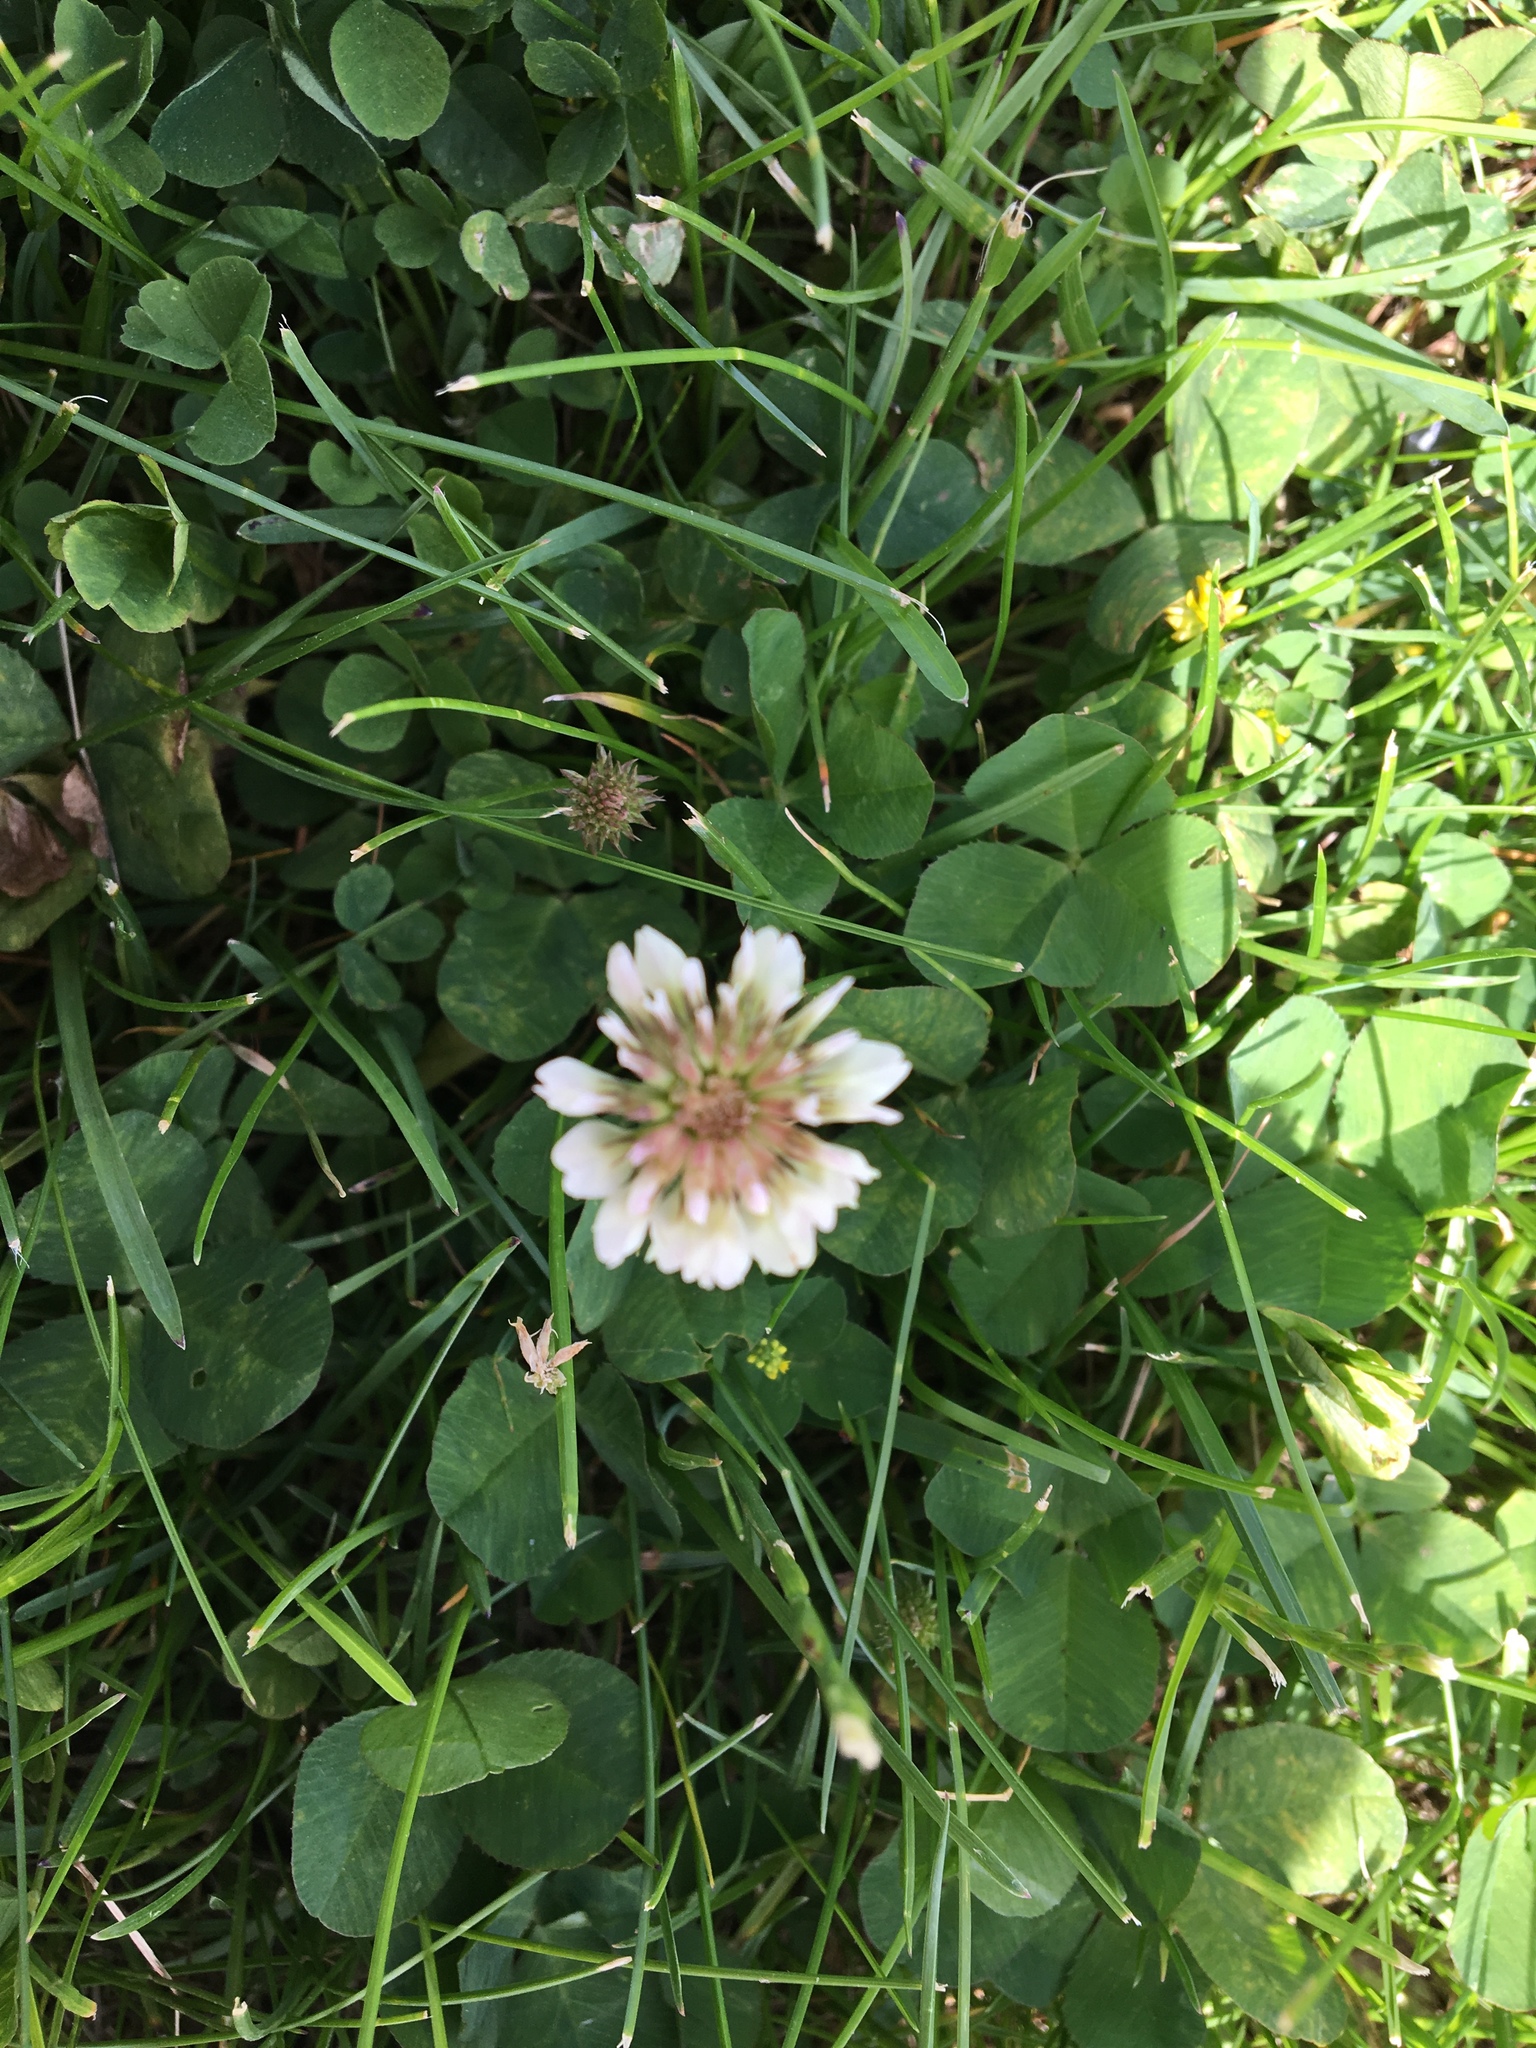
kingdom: Plantae
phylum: Tracheophyta
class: Magnoliopsida
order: Fabales
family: Fabaceae
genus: Trifolium
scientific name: Trifolium repens
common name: White clover
